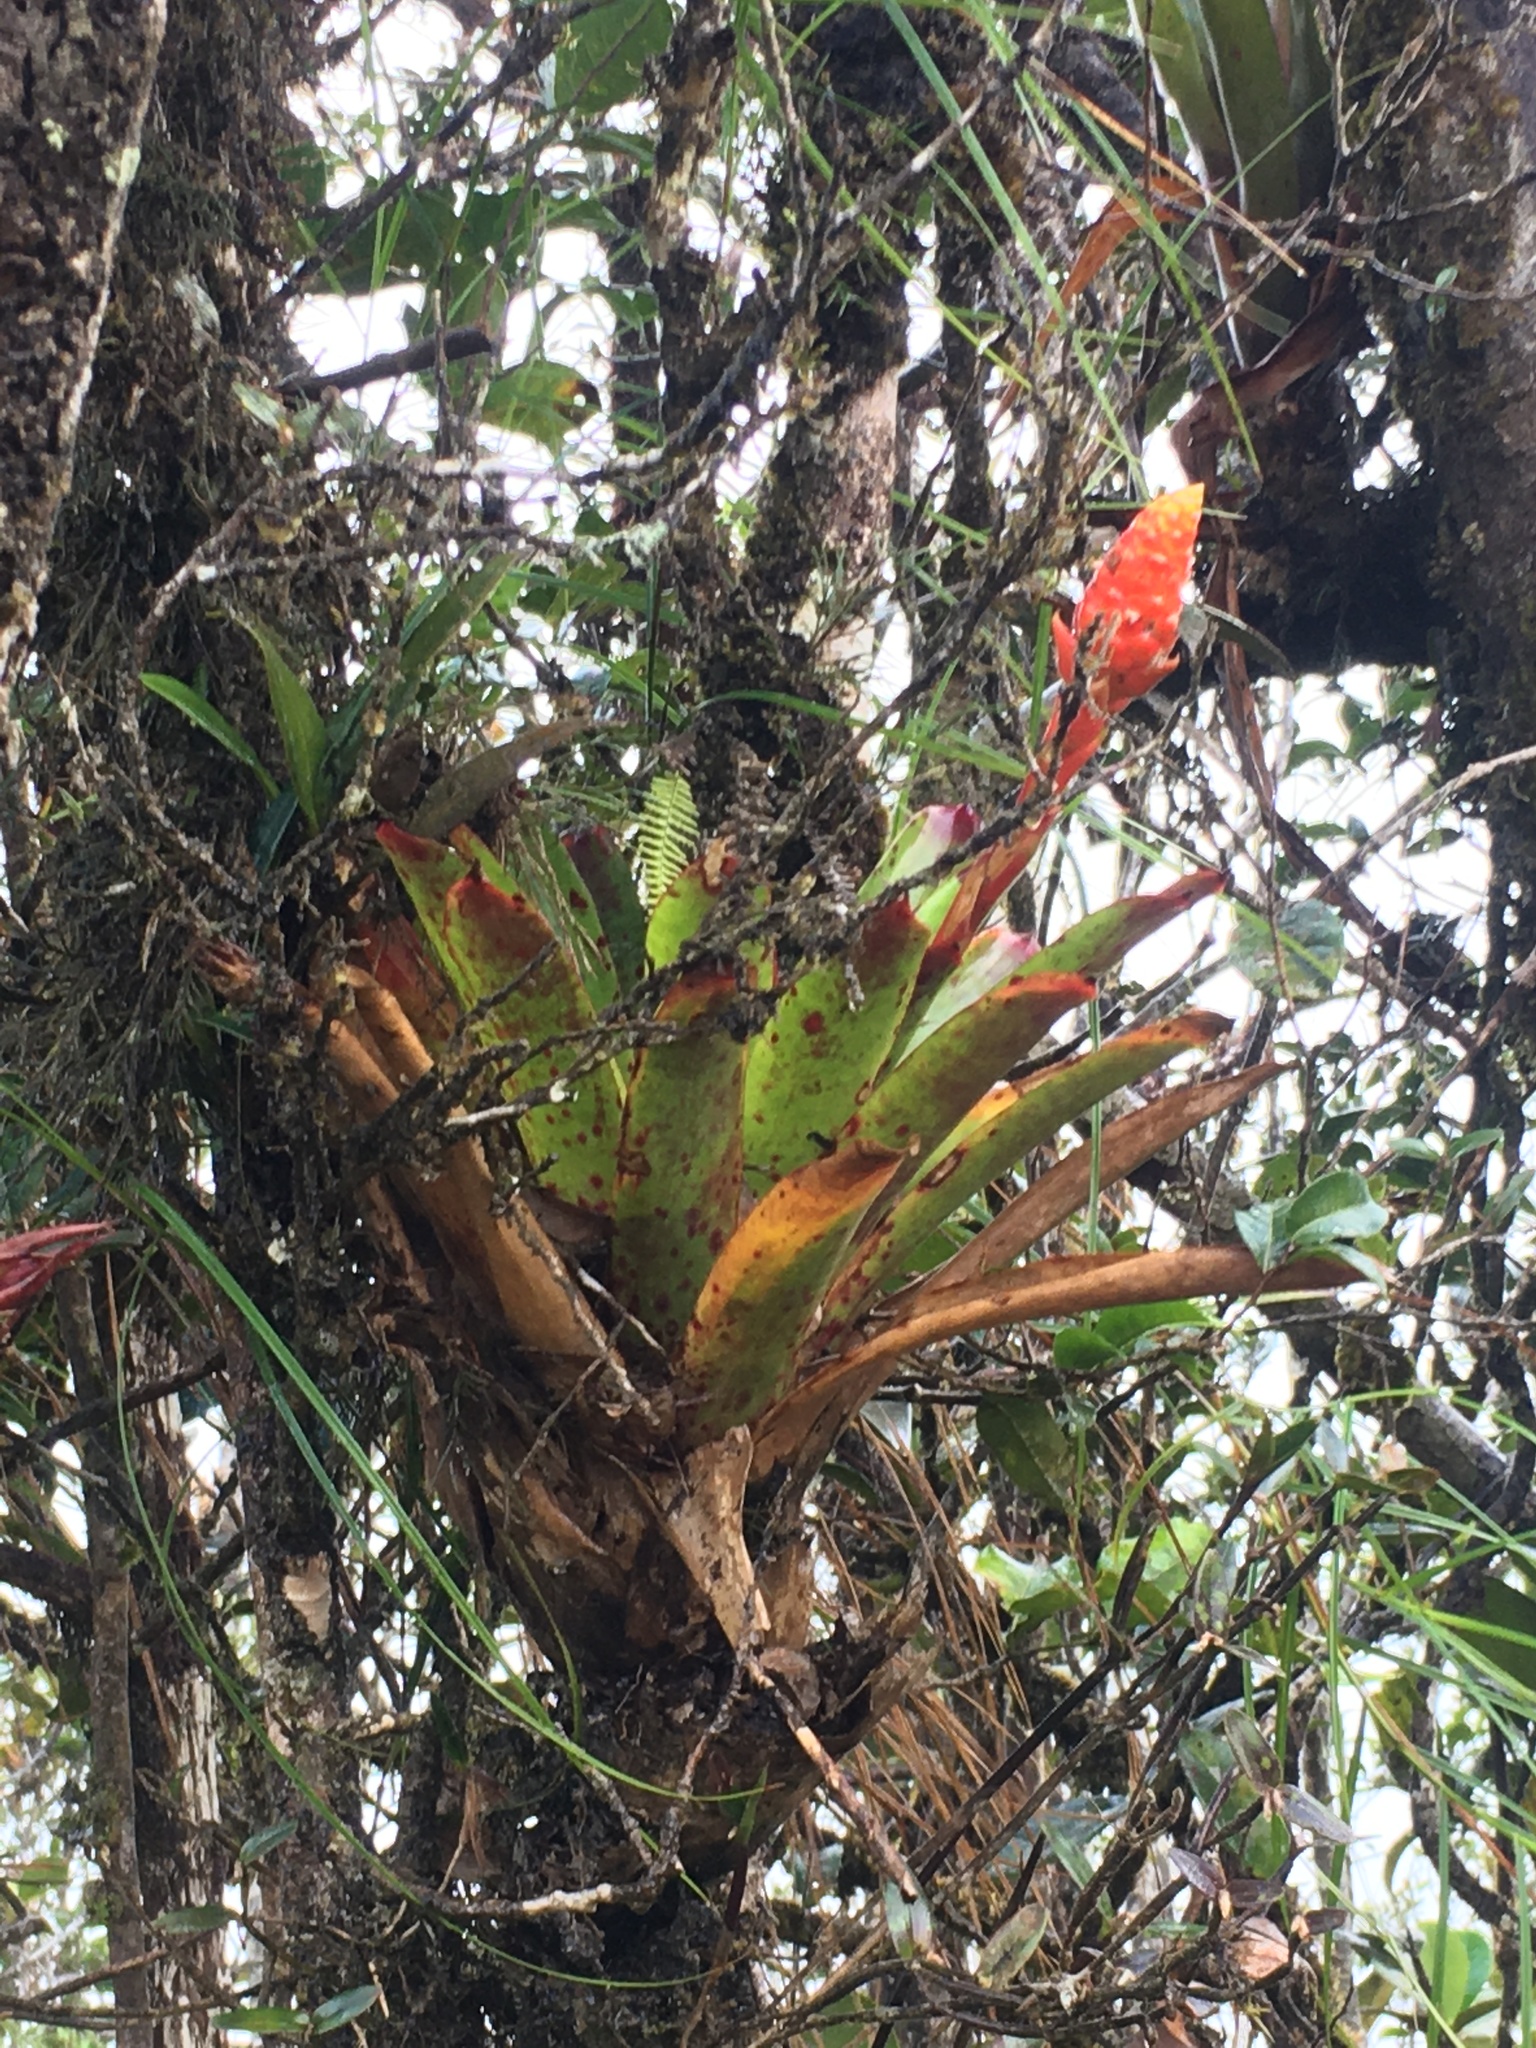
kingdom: Plantae
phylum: Tracheophyta
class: Liliopsida
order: Poales
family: Bromeliaceae
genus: Guzmania
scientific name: Guzmania elvallensis
